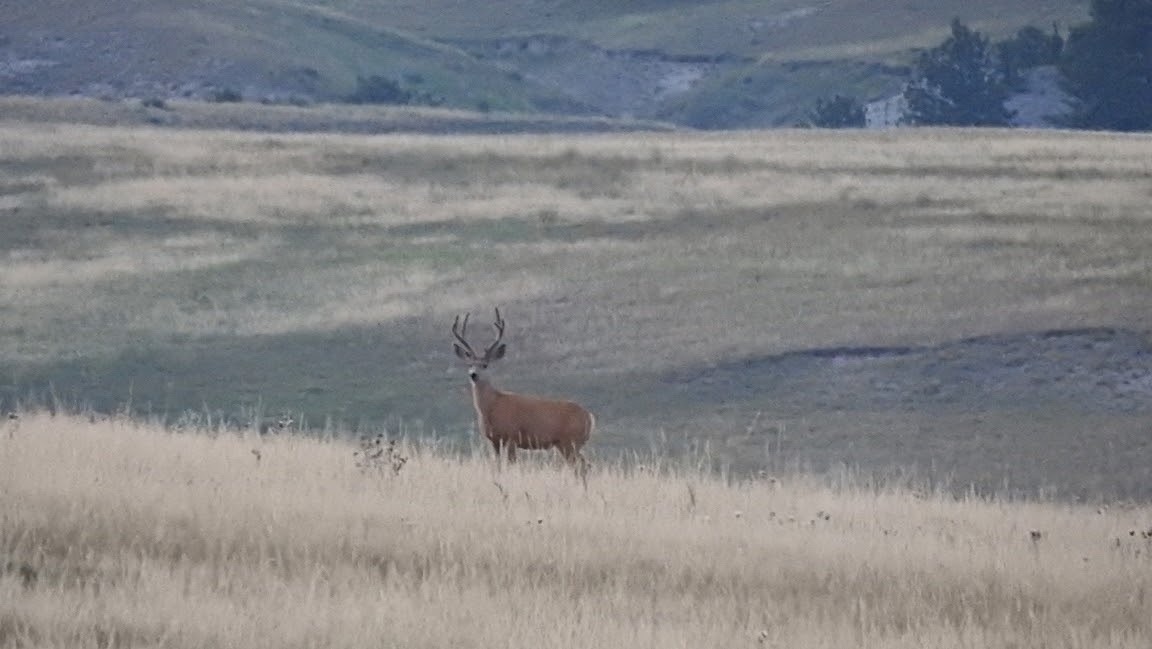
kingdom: Animalia
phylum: Chordata
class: Mammalia
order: Artiodactyla
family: Cervidae
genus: Odocoileus
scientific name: Odocoileus hemionus
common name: Mule deer
